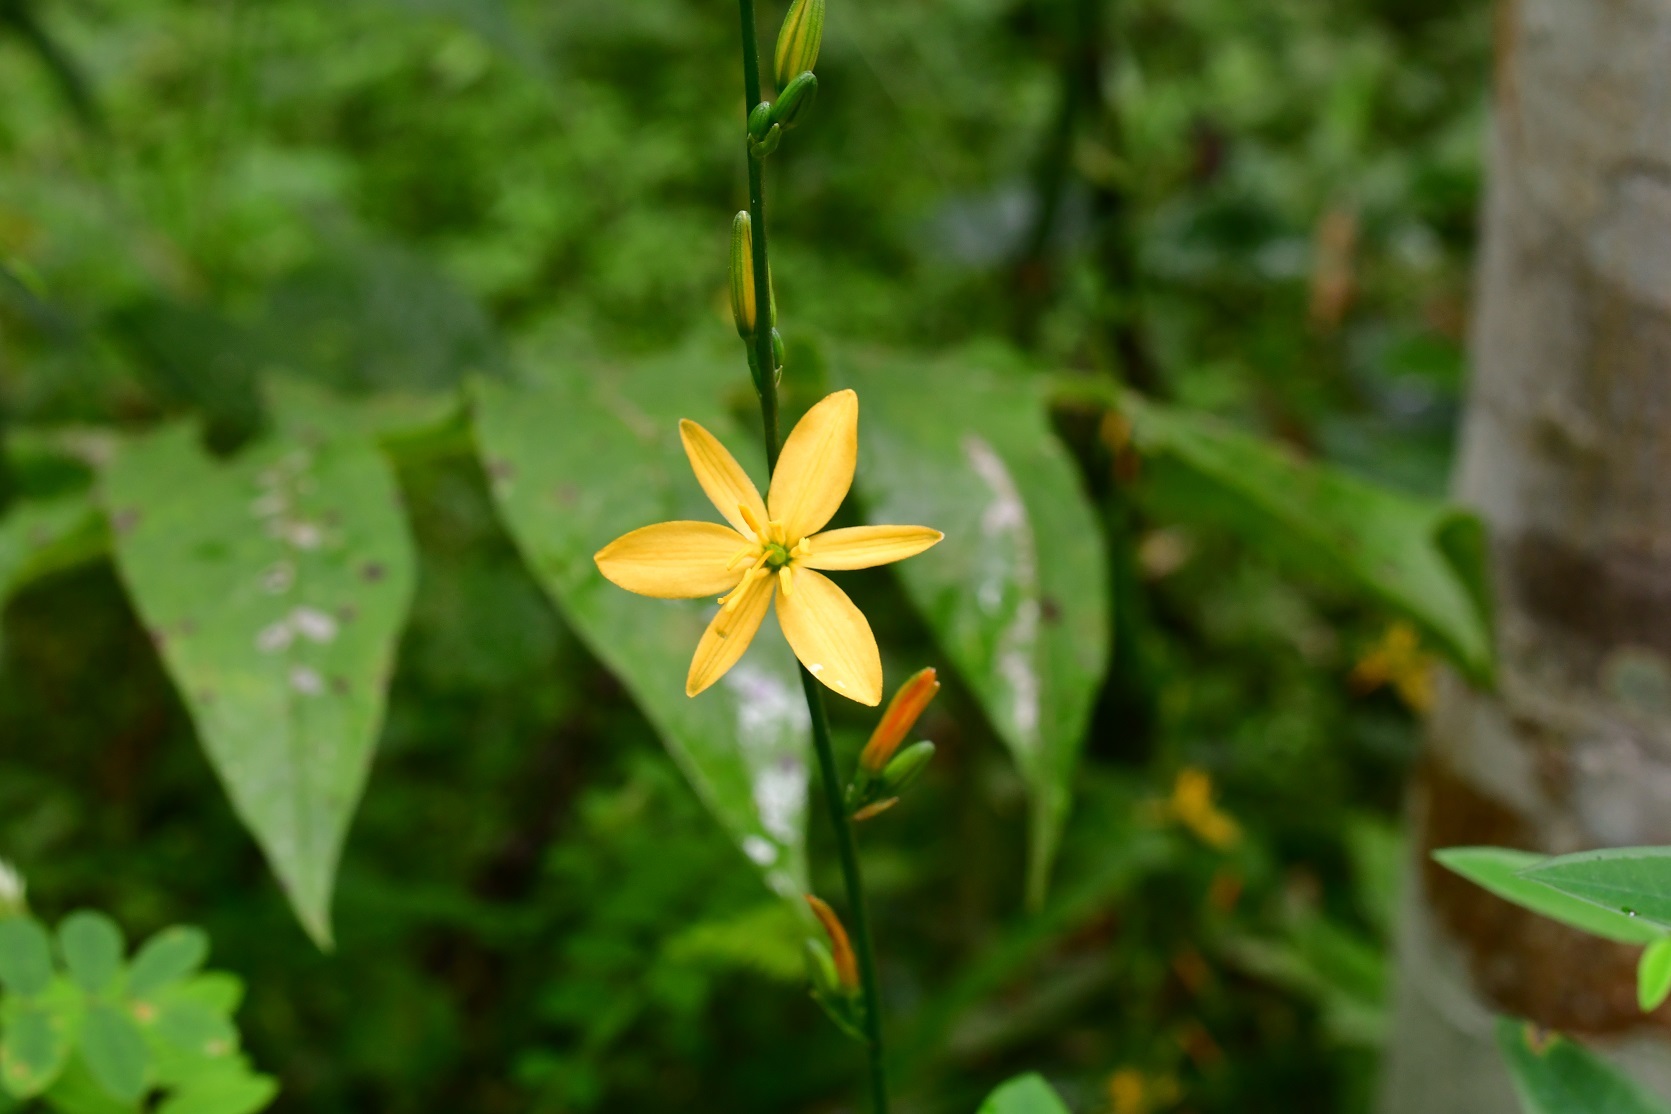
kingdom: Plantae
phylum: Tracheophyta
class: Liliopsida
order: Asparagales
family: Asparagaceae
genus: Echeandia
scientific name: Echeandia breedlovei
